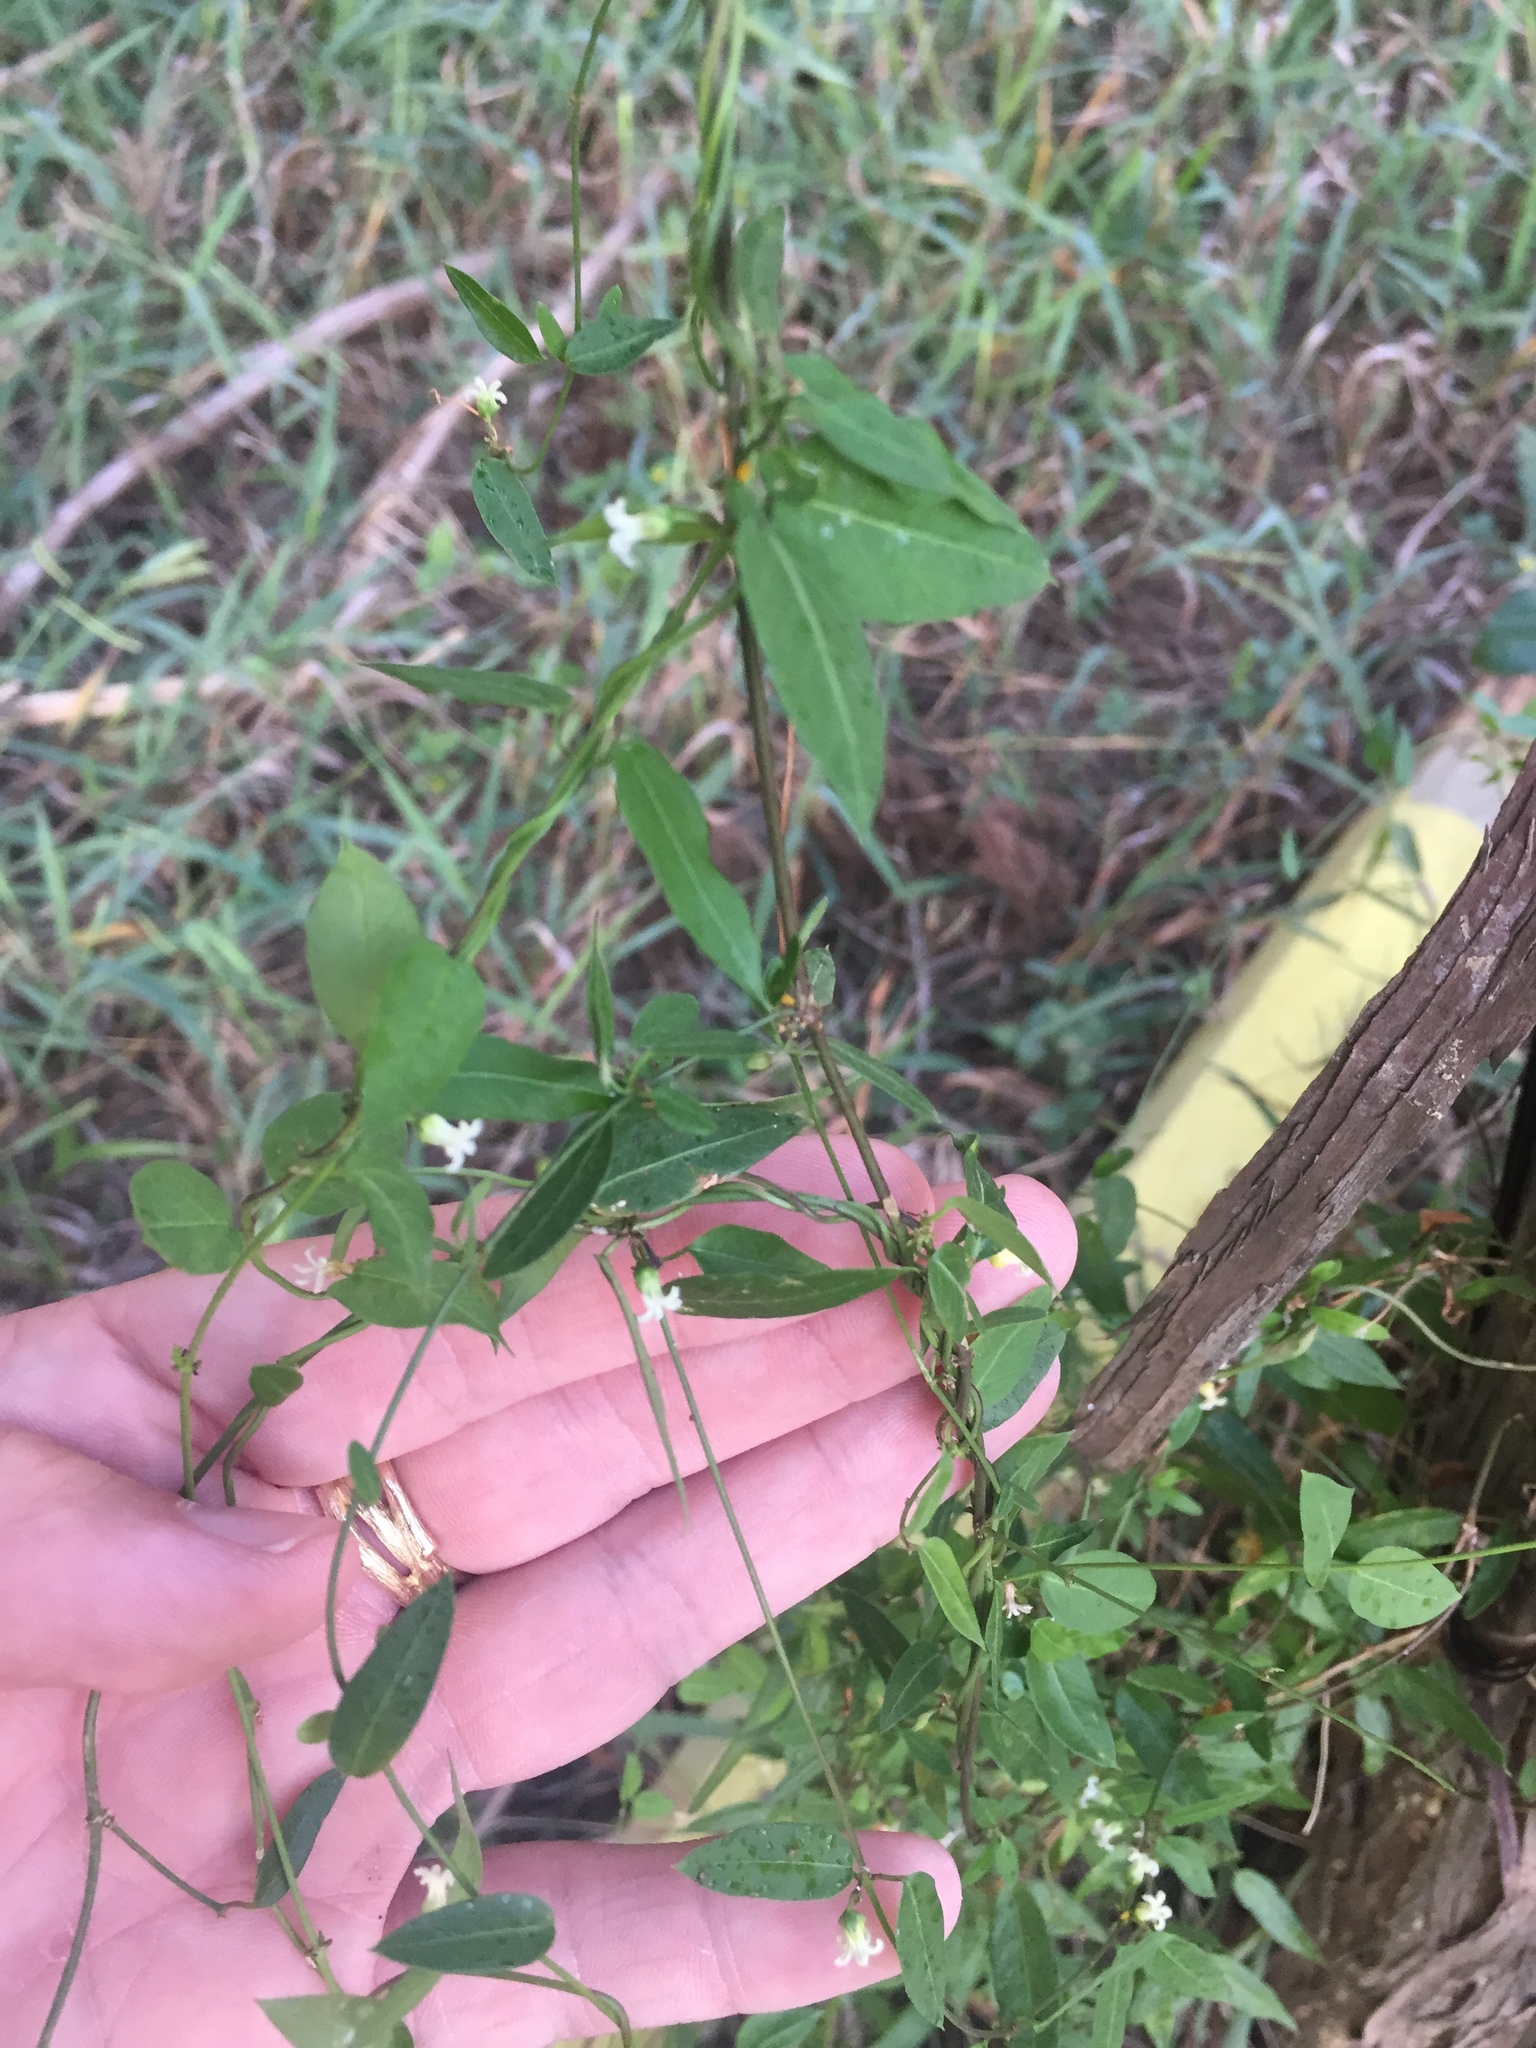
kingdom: Plantae
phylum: Tracheophyta
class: Magnoliopsida
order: Gentianales
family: Apocynaceae
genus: Metastelma
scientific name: Metastelma barbigerum
